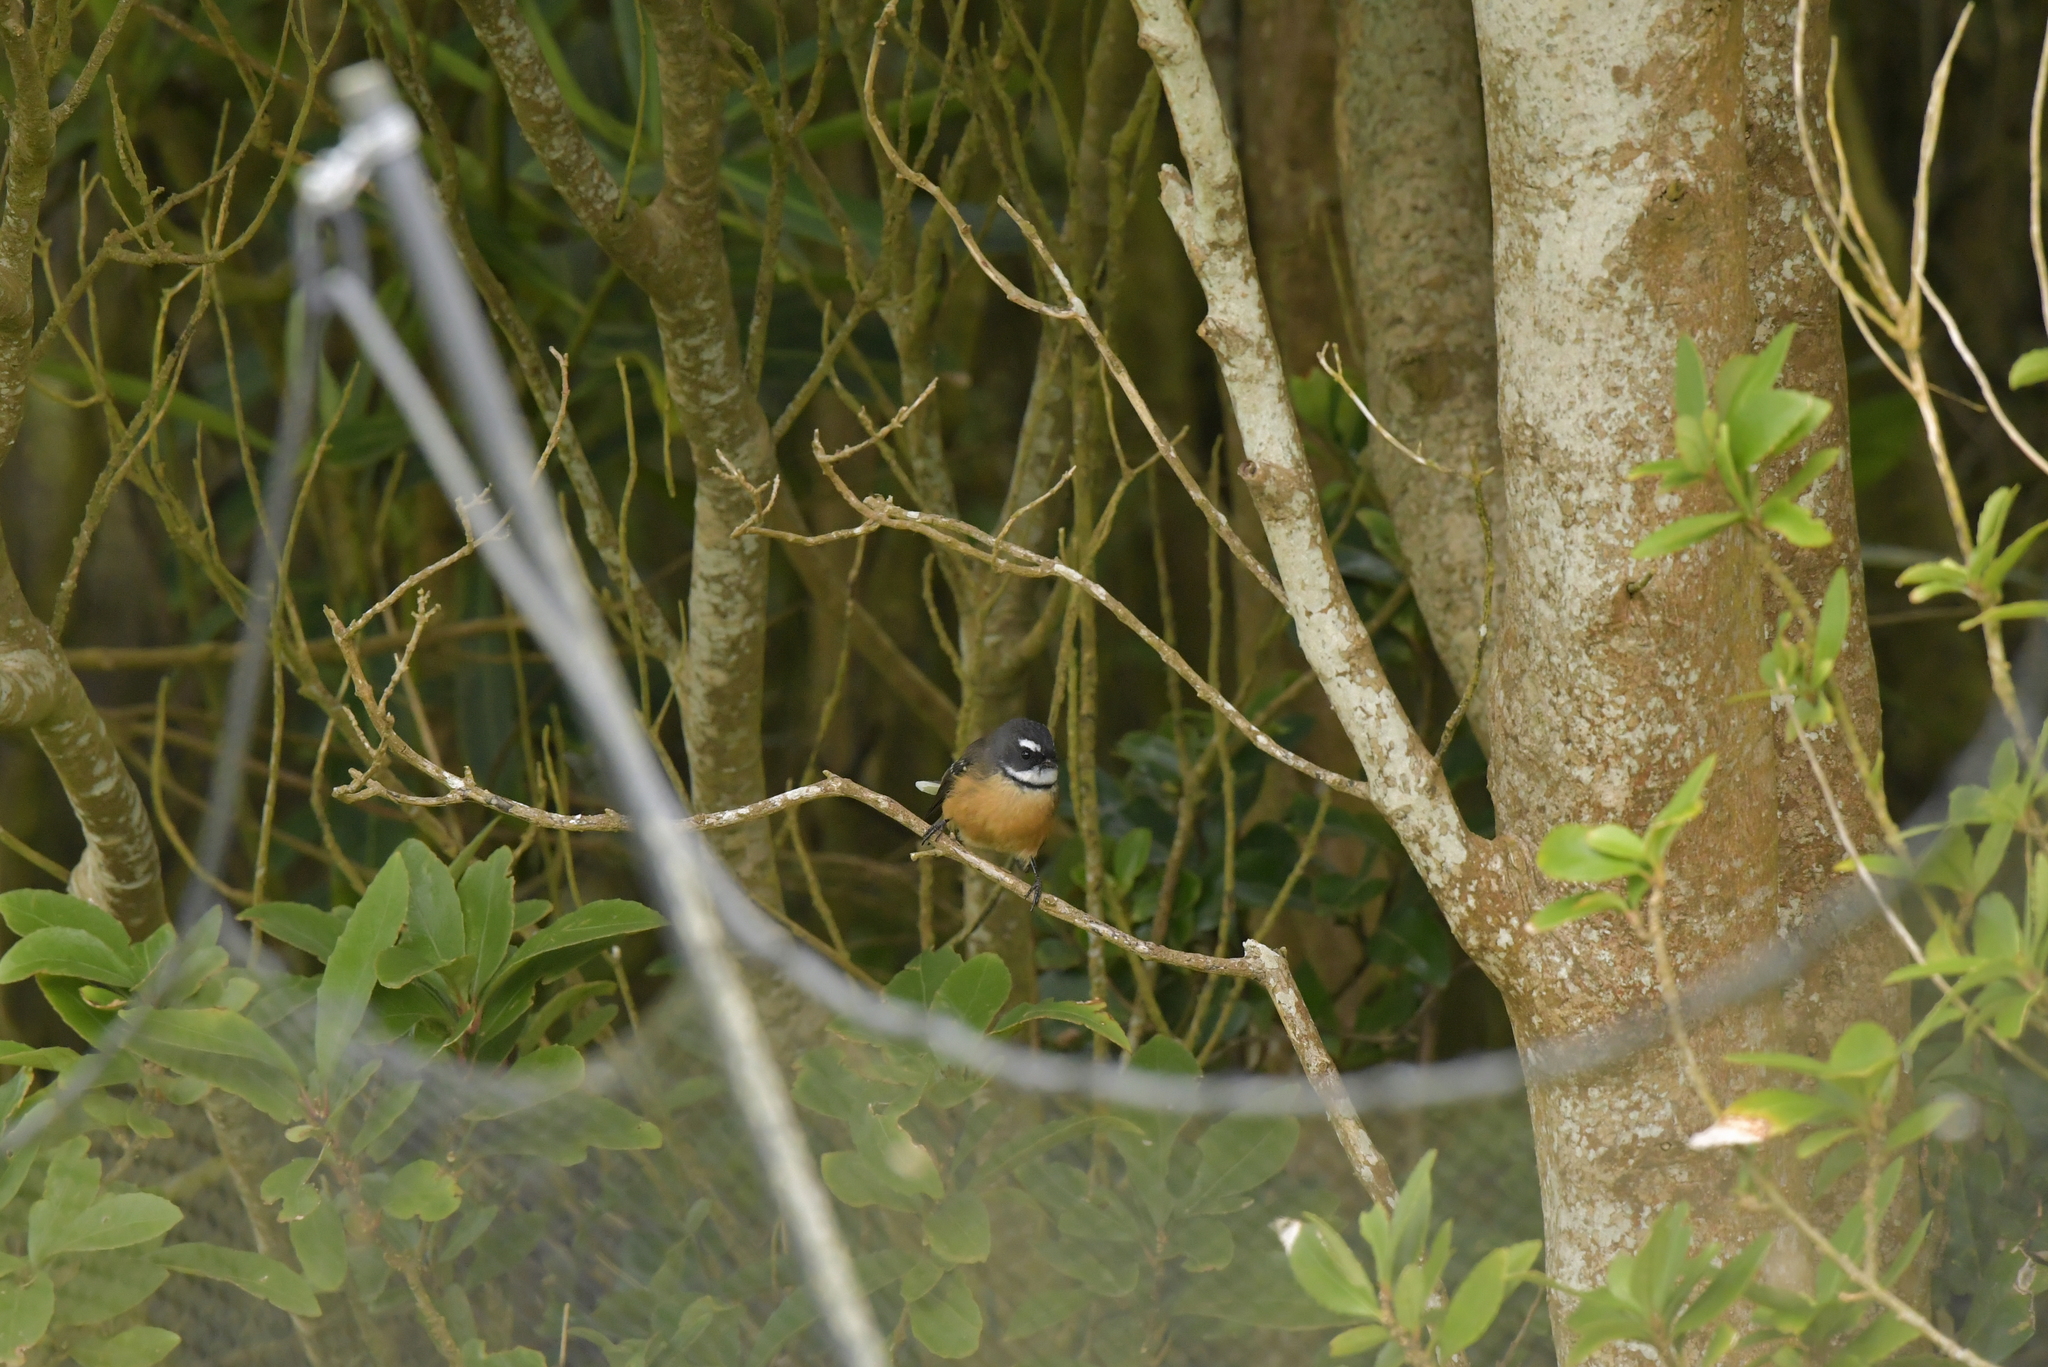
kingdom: Animalia
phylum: Chordata
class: Aves
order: Passeriformes
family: Rhipiduridae
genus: Rhipidura
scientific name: Rhipidura fuliginosa
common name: New zealand fantail
